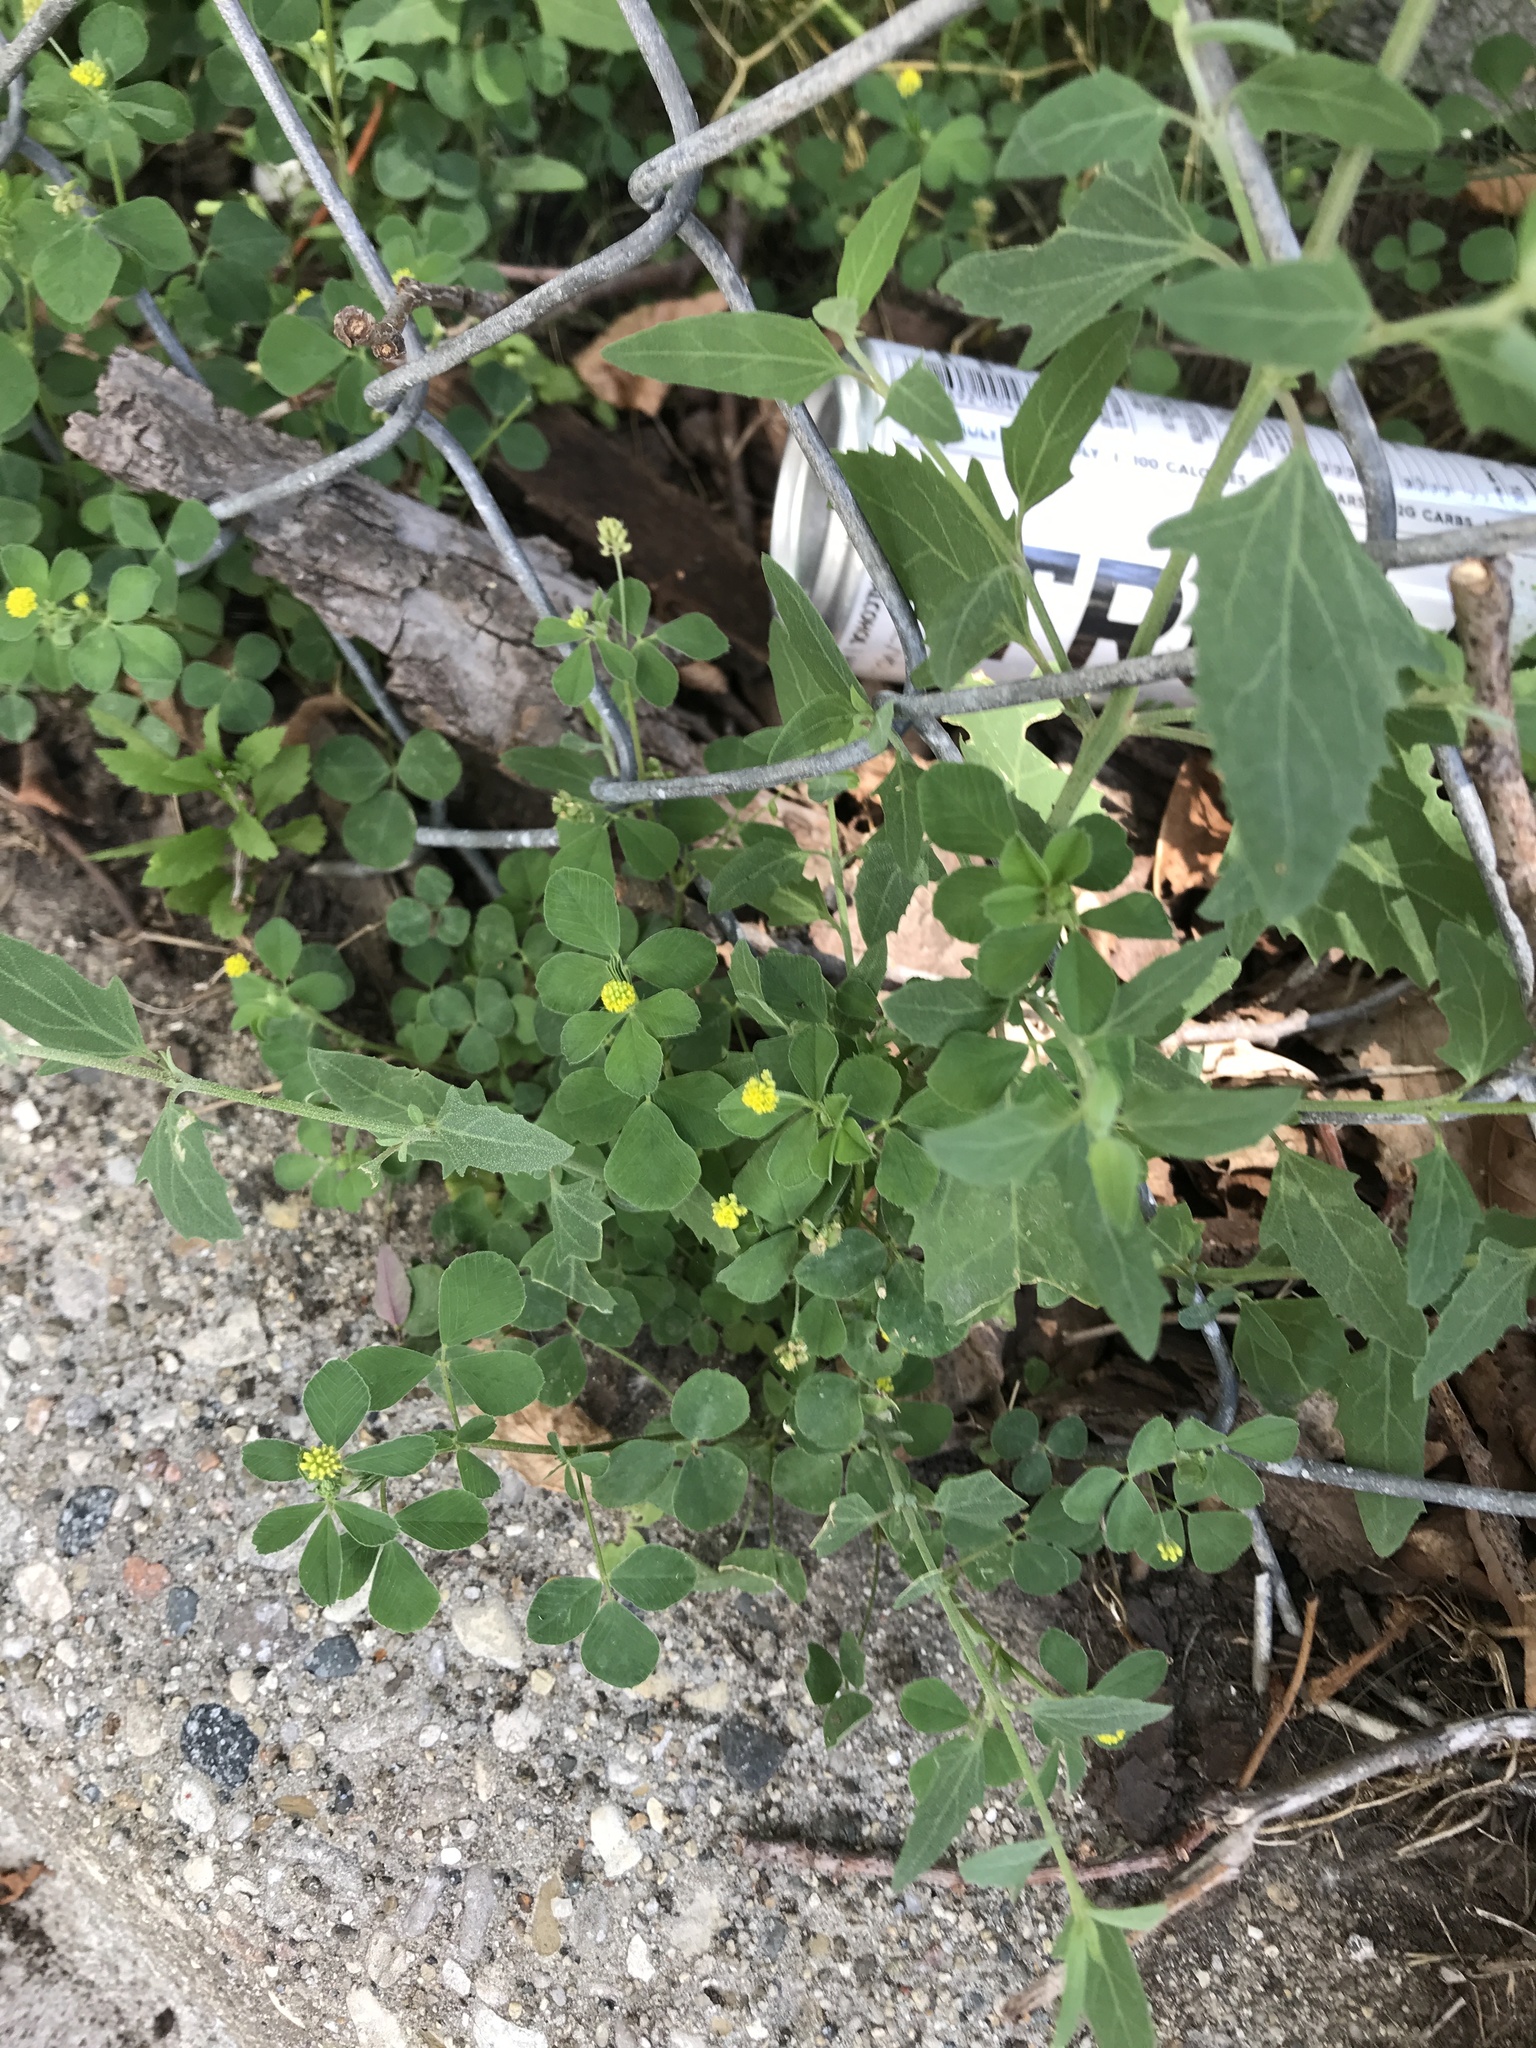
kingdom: Plantae
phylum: Tracheophyta
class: Magnoliopsida
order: Fabales
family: Fabaceae
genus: Medicago
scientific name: Medicago lupulina
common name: Black medick
